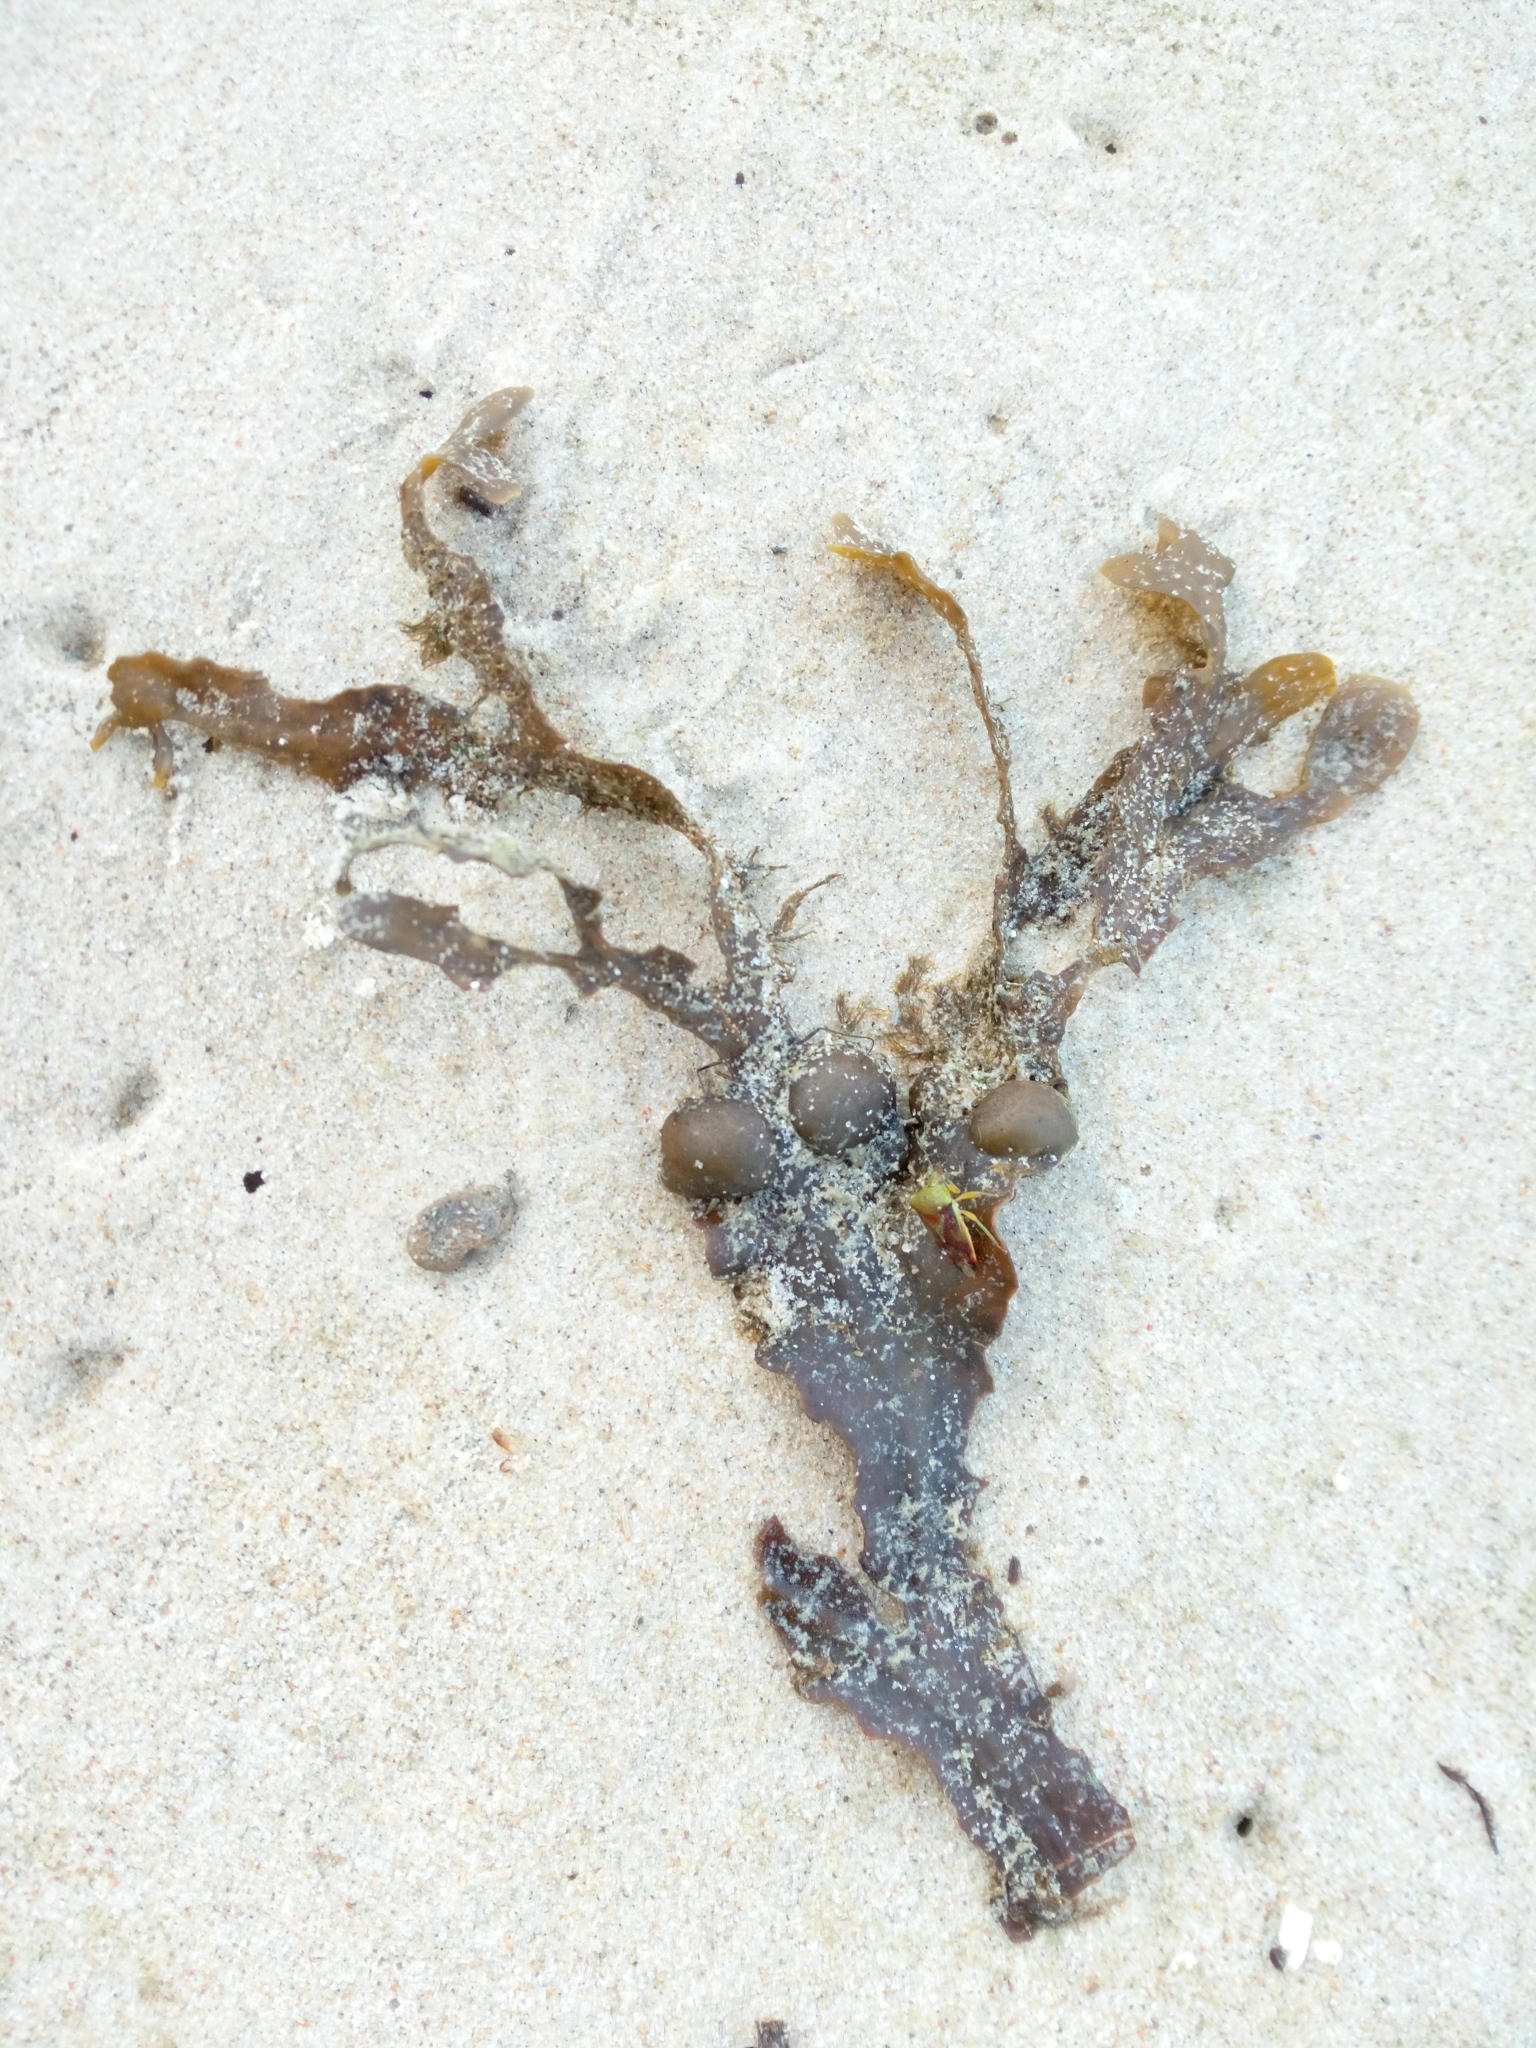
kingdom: Chromista
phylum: Ochrophyta
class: Phaeophyceae
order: Fucales
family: Fucaceae
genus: Fucus
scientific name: Fucus vesiculosus
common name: Bladder wrack
